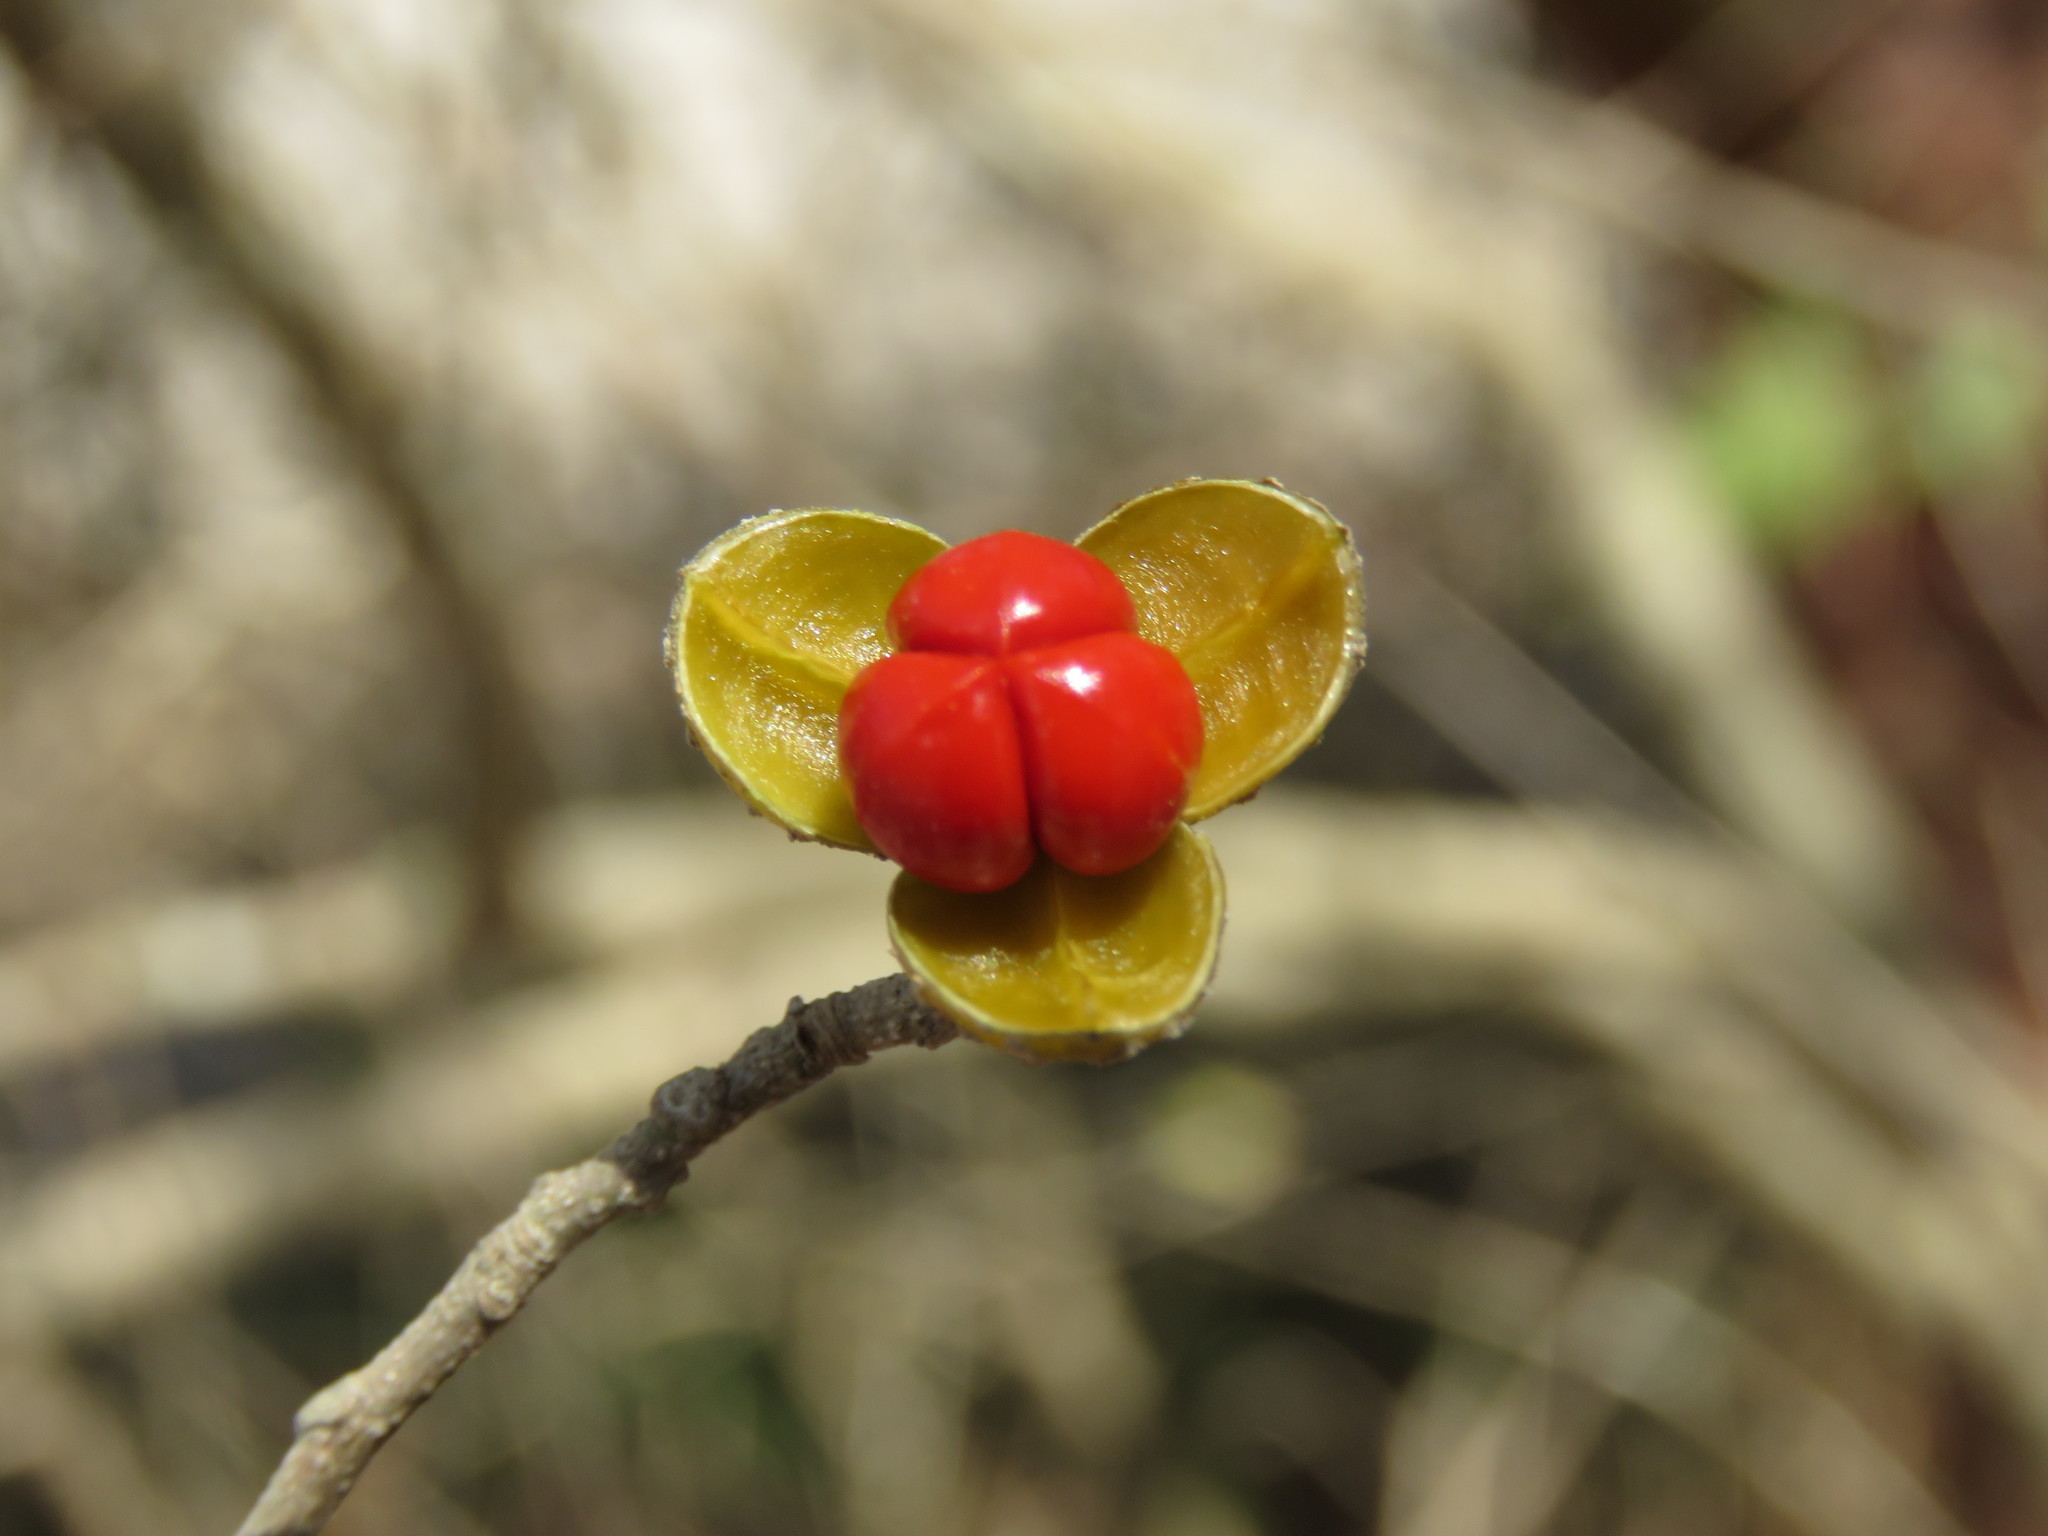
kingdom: Plantae
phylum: Tracheophyta
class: Magnoliopsida
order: Sapindales
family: Meliaceae
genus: Trichilia
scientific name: Trichilia trifolia
